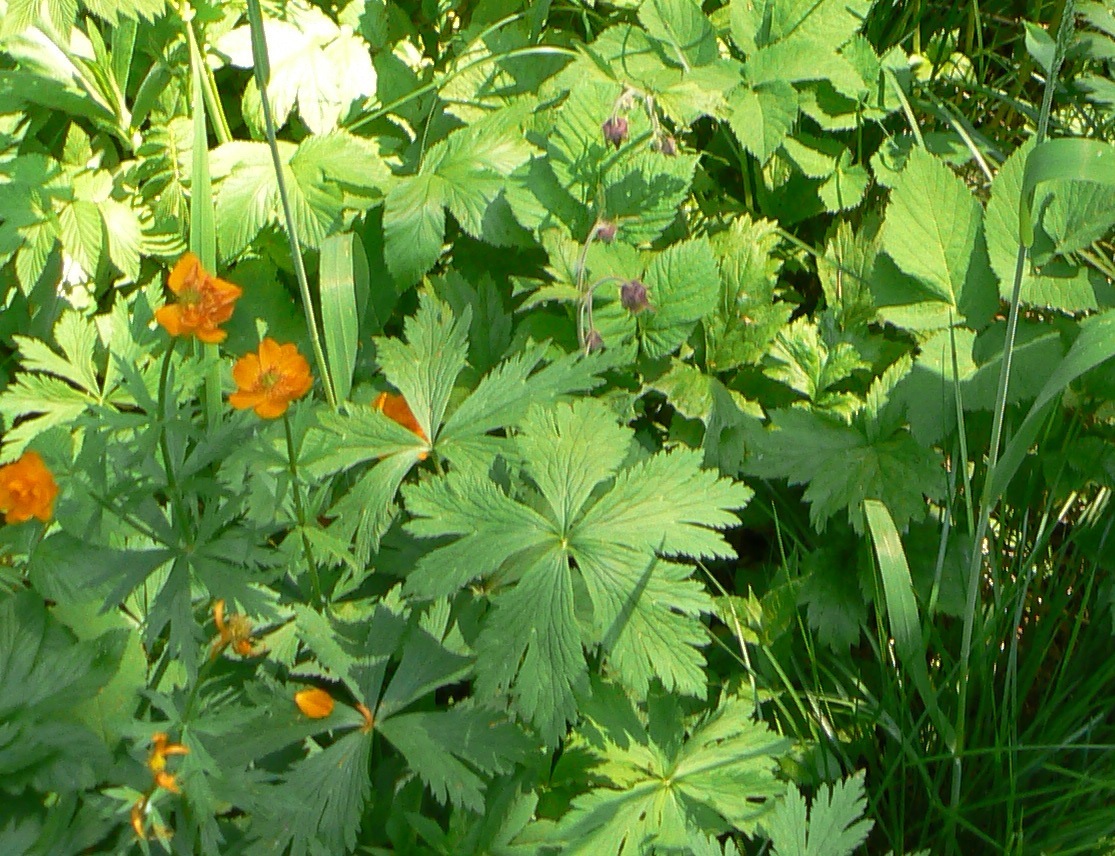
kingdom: Plantae
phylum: Tracheophyta
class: Magnoliopsida
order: Ranunculales
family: Ranunculaceae
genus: Trollius
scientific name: Trollius asiaticus
